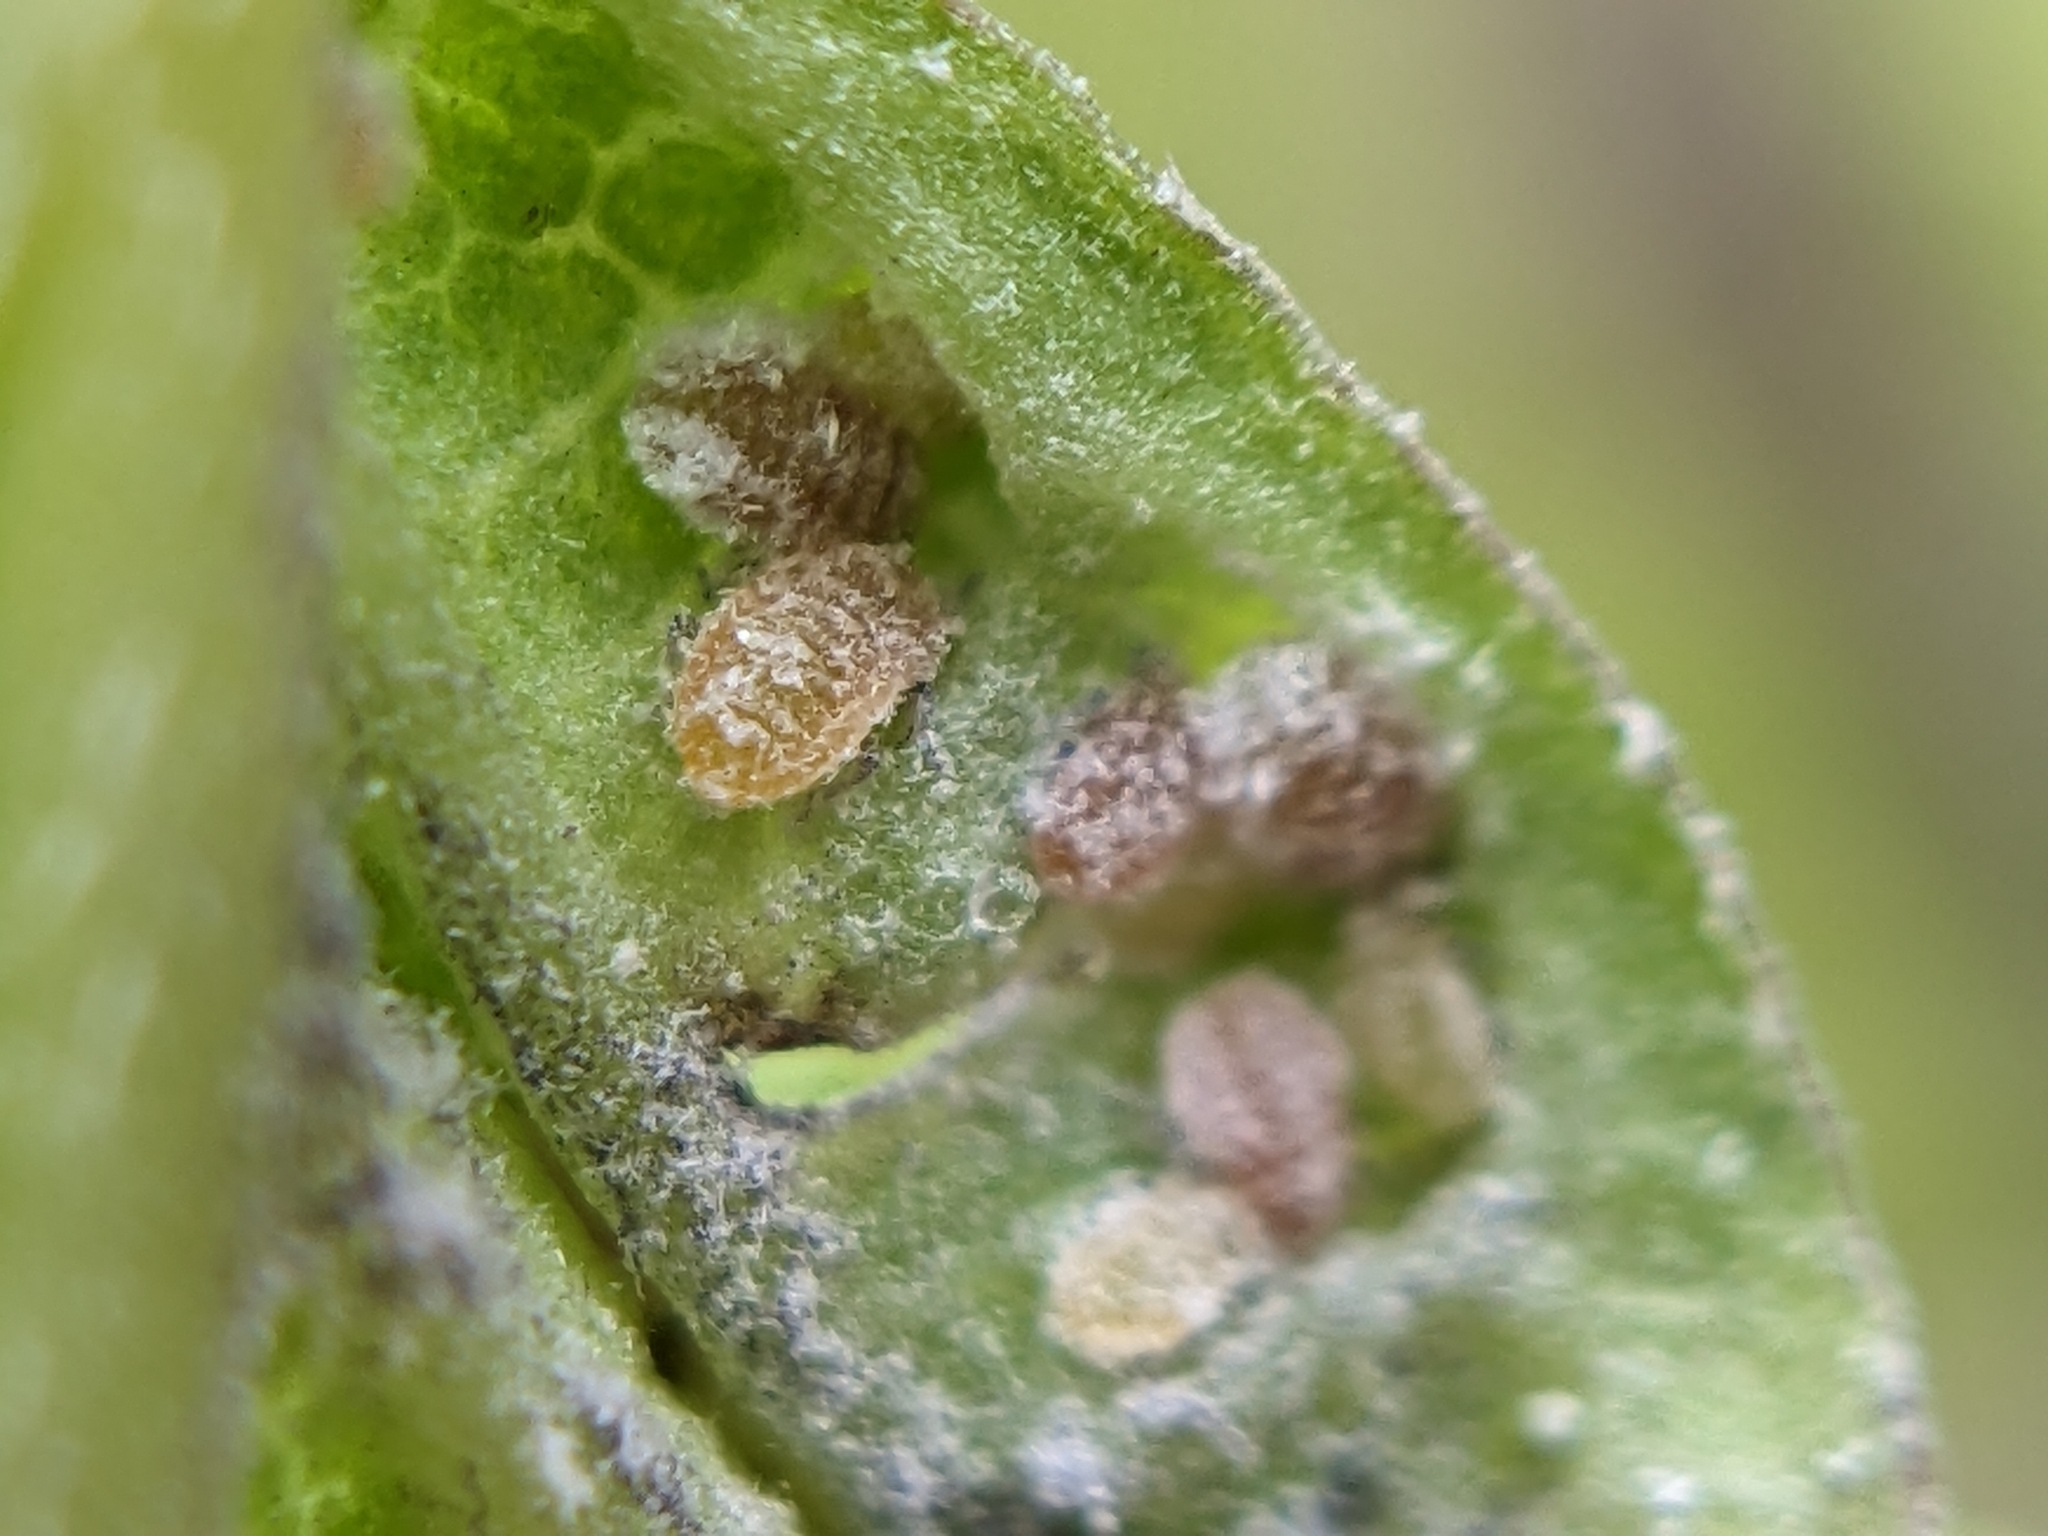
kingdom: Animalia
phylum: Arthropoda
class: Insecta
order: Hemiptera
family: Aphididae
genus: Hamamelistes
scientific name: Hamamelistes spinosus
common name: Witch hazel gall aphid
